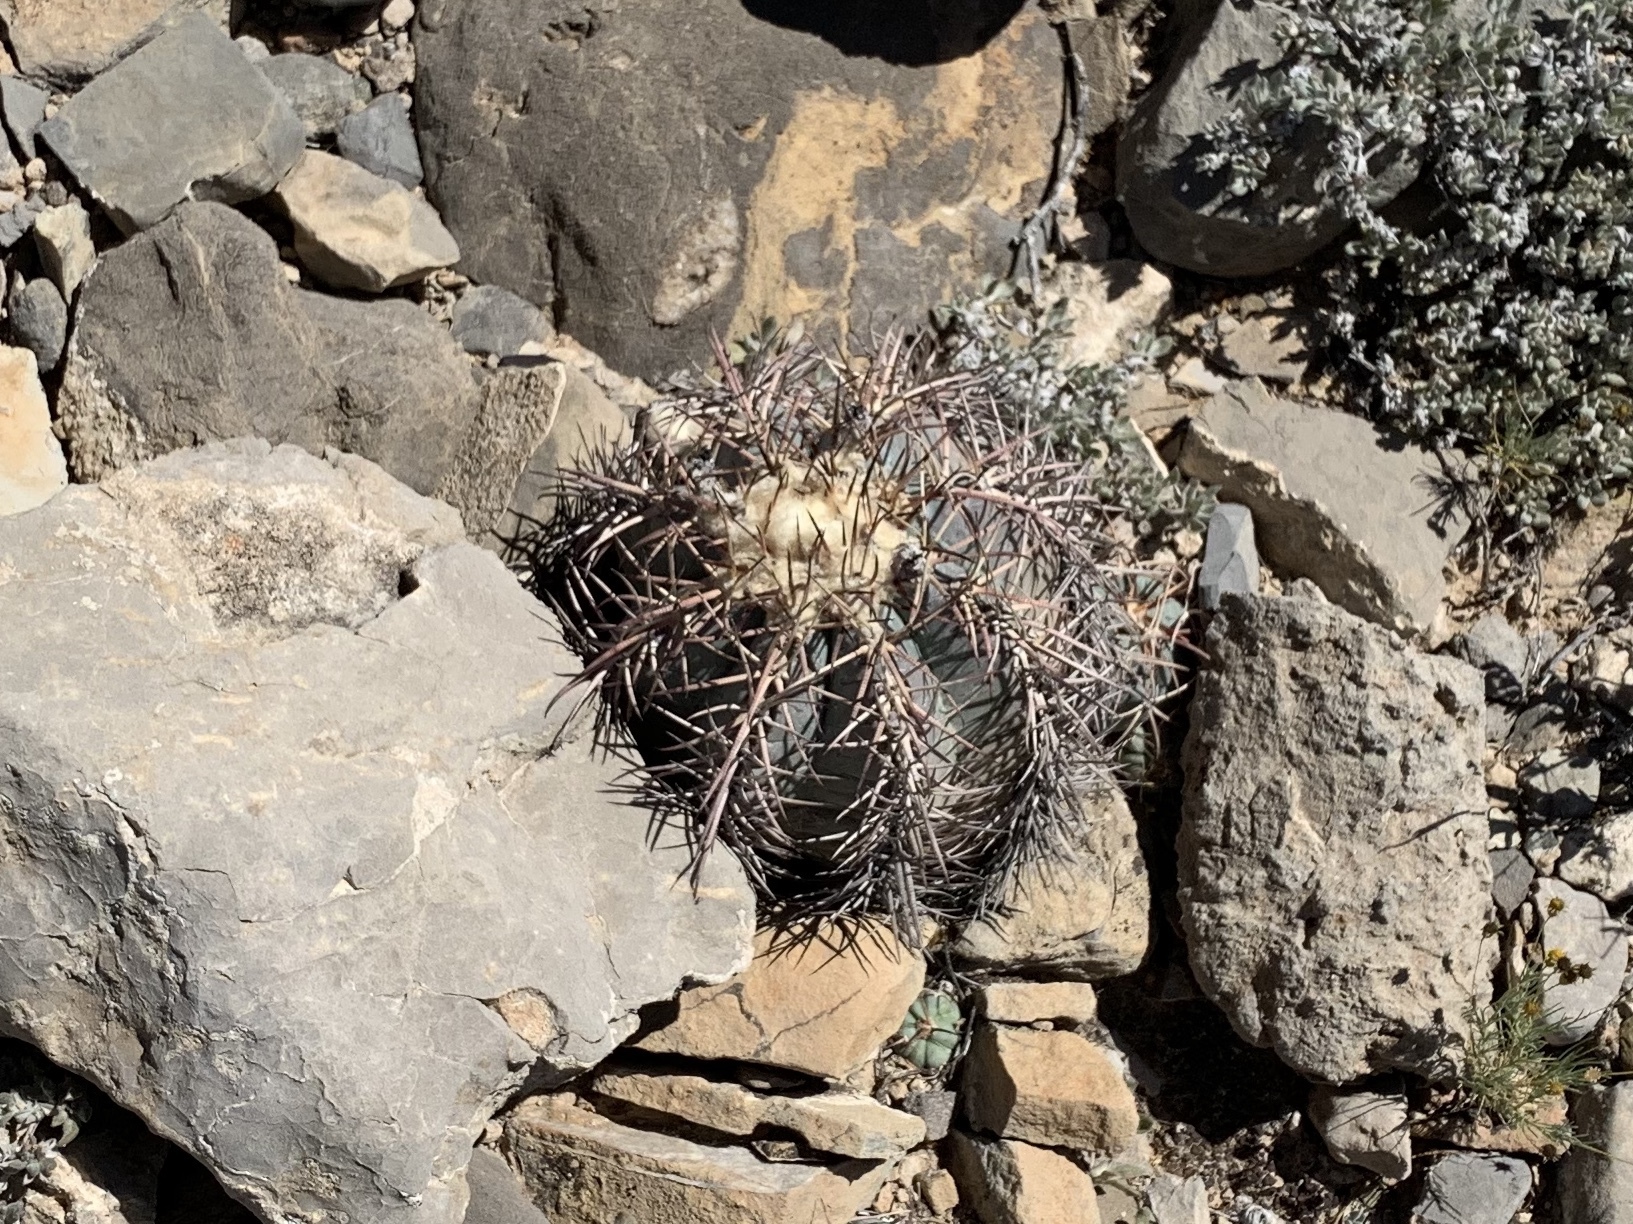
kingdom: Plantae
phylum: Tracheophyta
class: Magnoliopsida
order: Caryophyllales
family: Cactaceae
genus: Echinocactus
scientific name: Echinocactus horizonthalonius
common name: Devilshead
